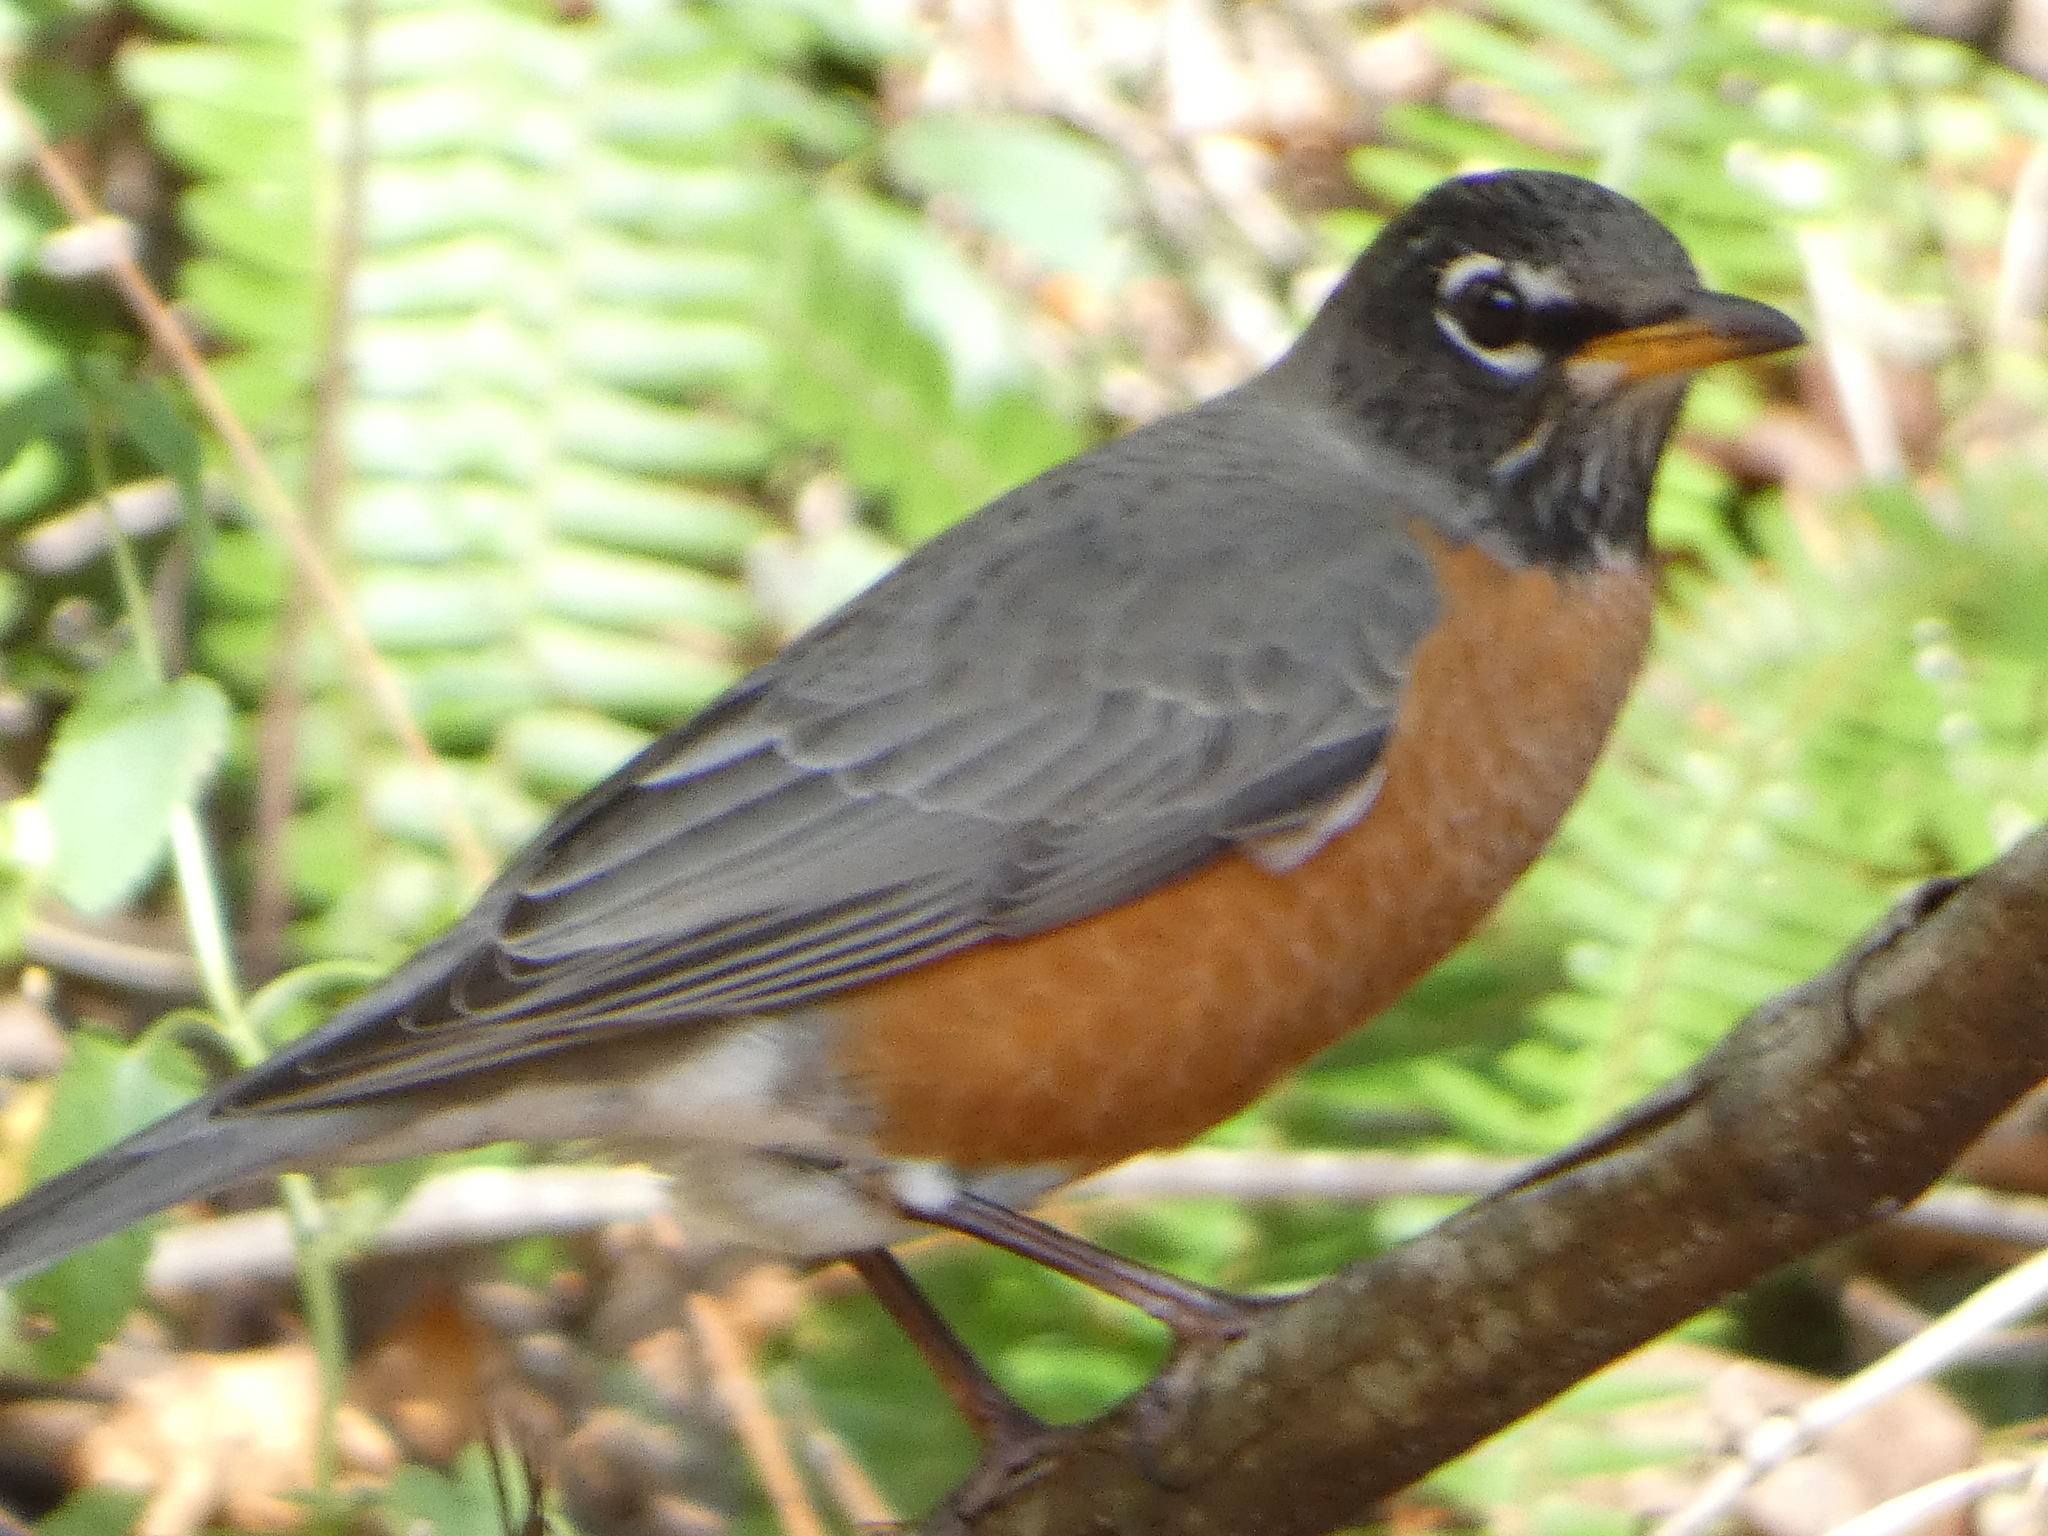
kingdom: Animalia
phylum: Chordata
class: Aves
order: Passeriformes
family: Turdidae
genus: Turdus
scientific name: Turdus migratorius
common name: American robin
